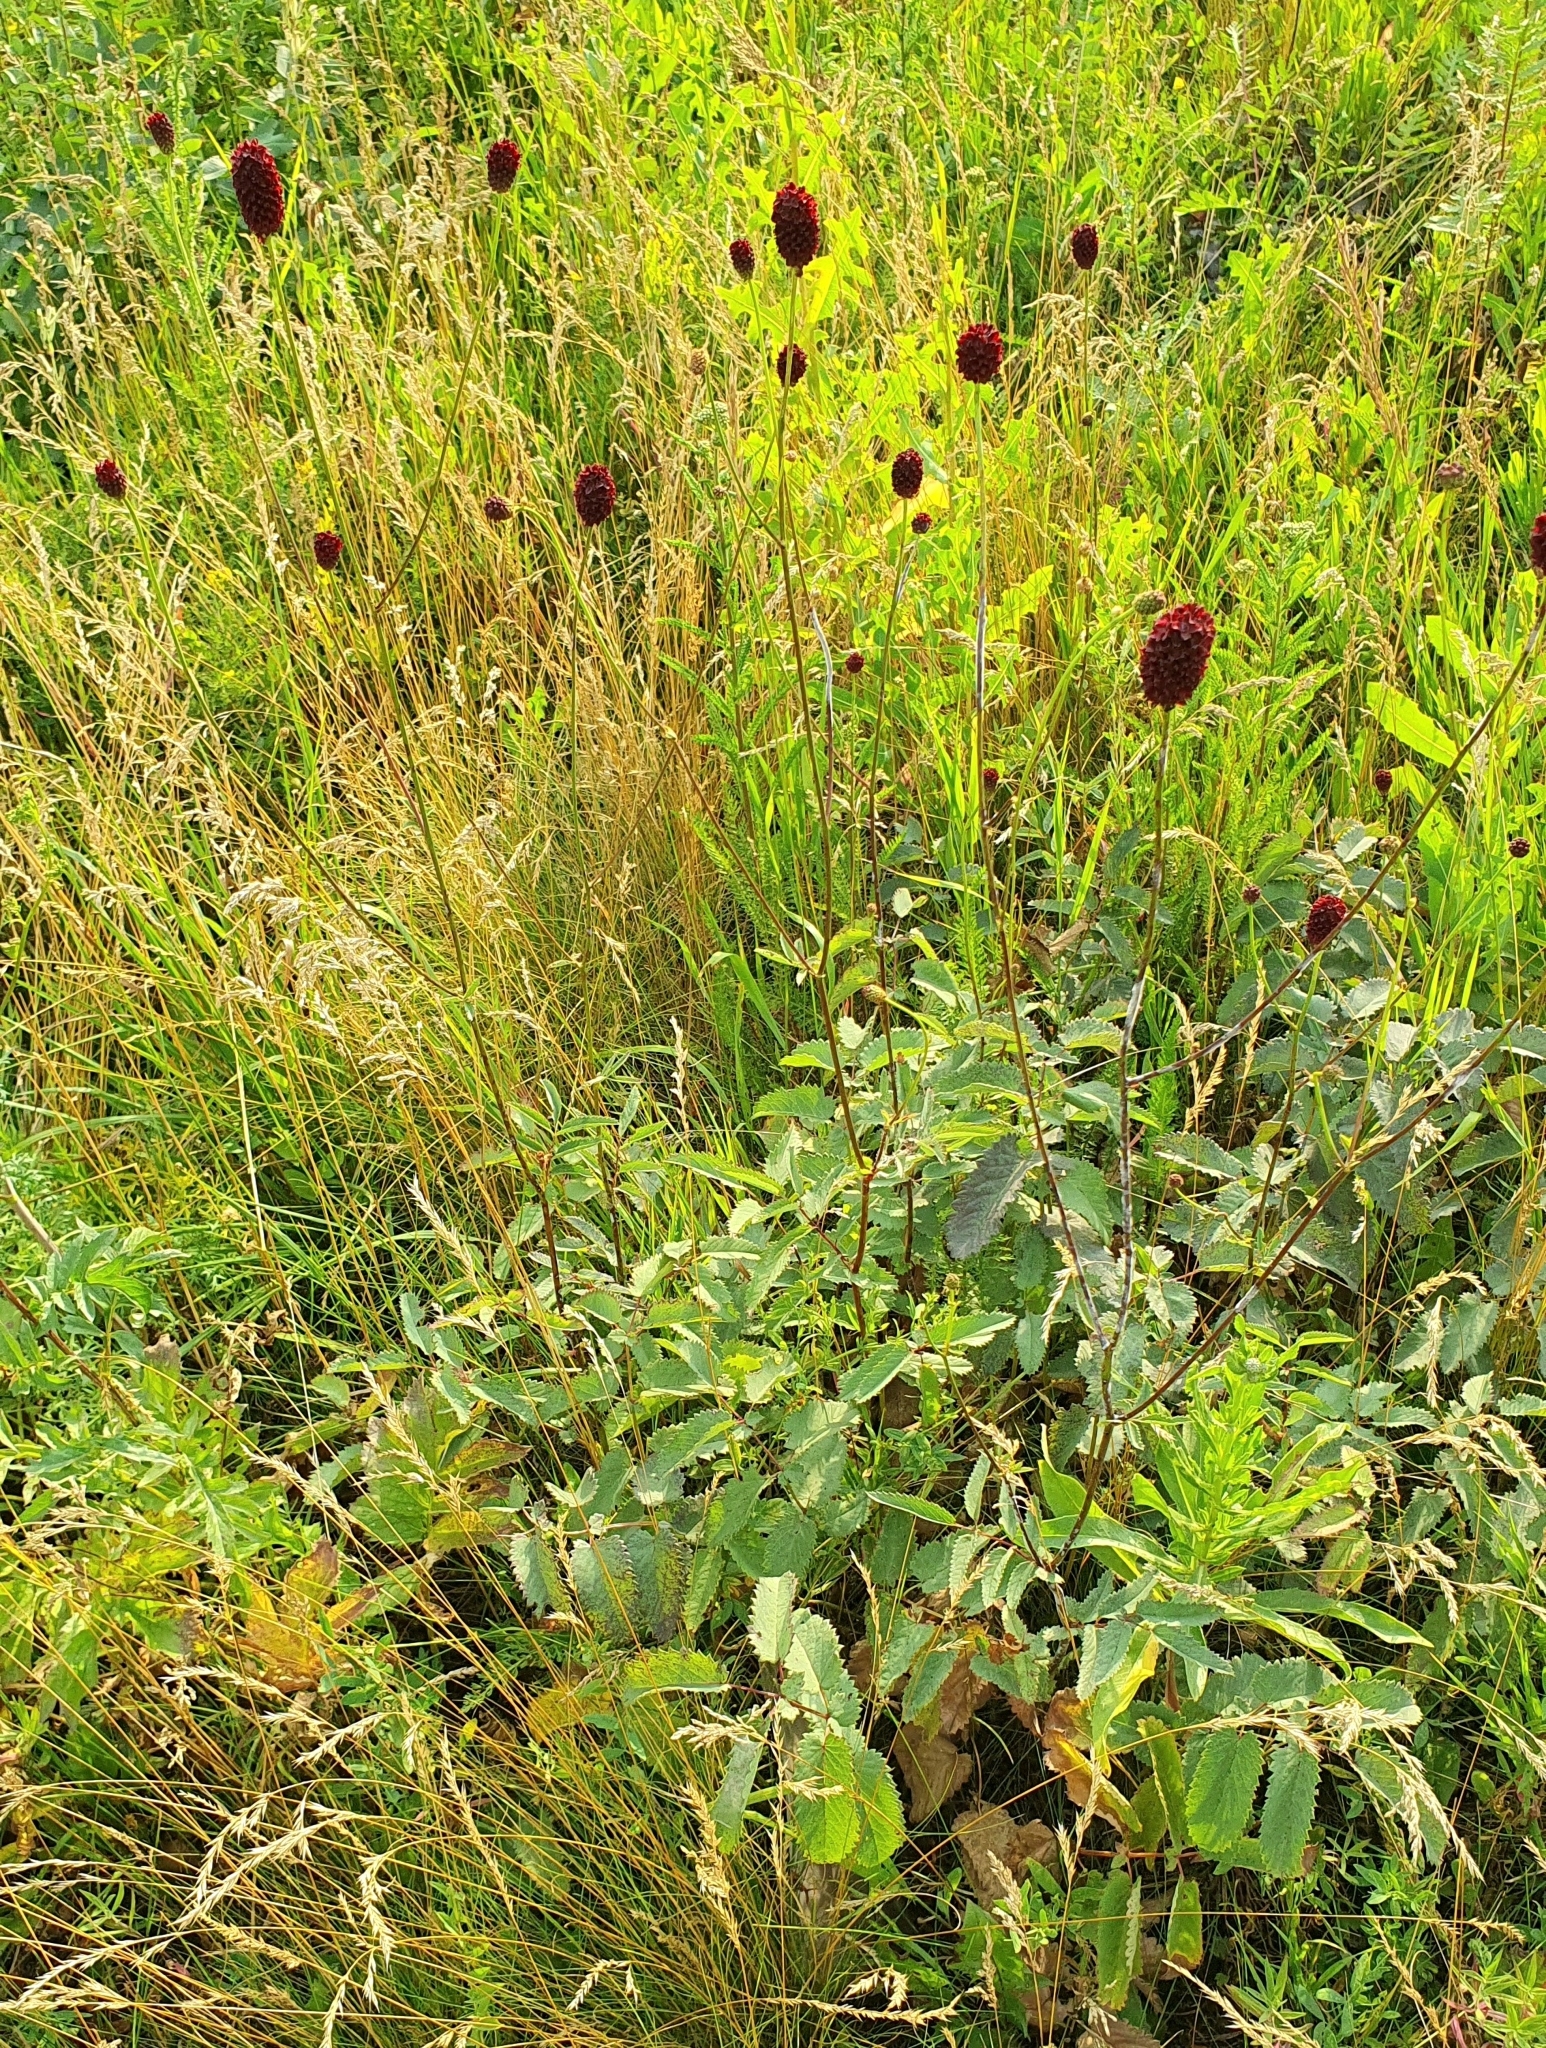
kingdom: Plantae
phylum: Tracheophyta
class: Magnoliopsida
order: Rosales
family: Rosaceae
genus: Sanguisorba
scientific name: Sanguisorba officinalis
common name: Great burnet
